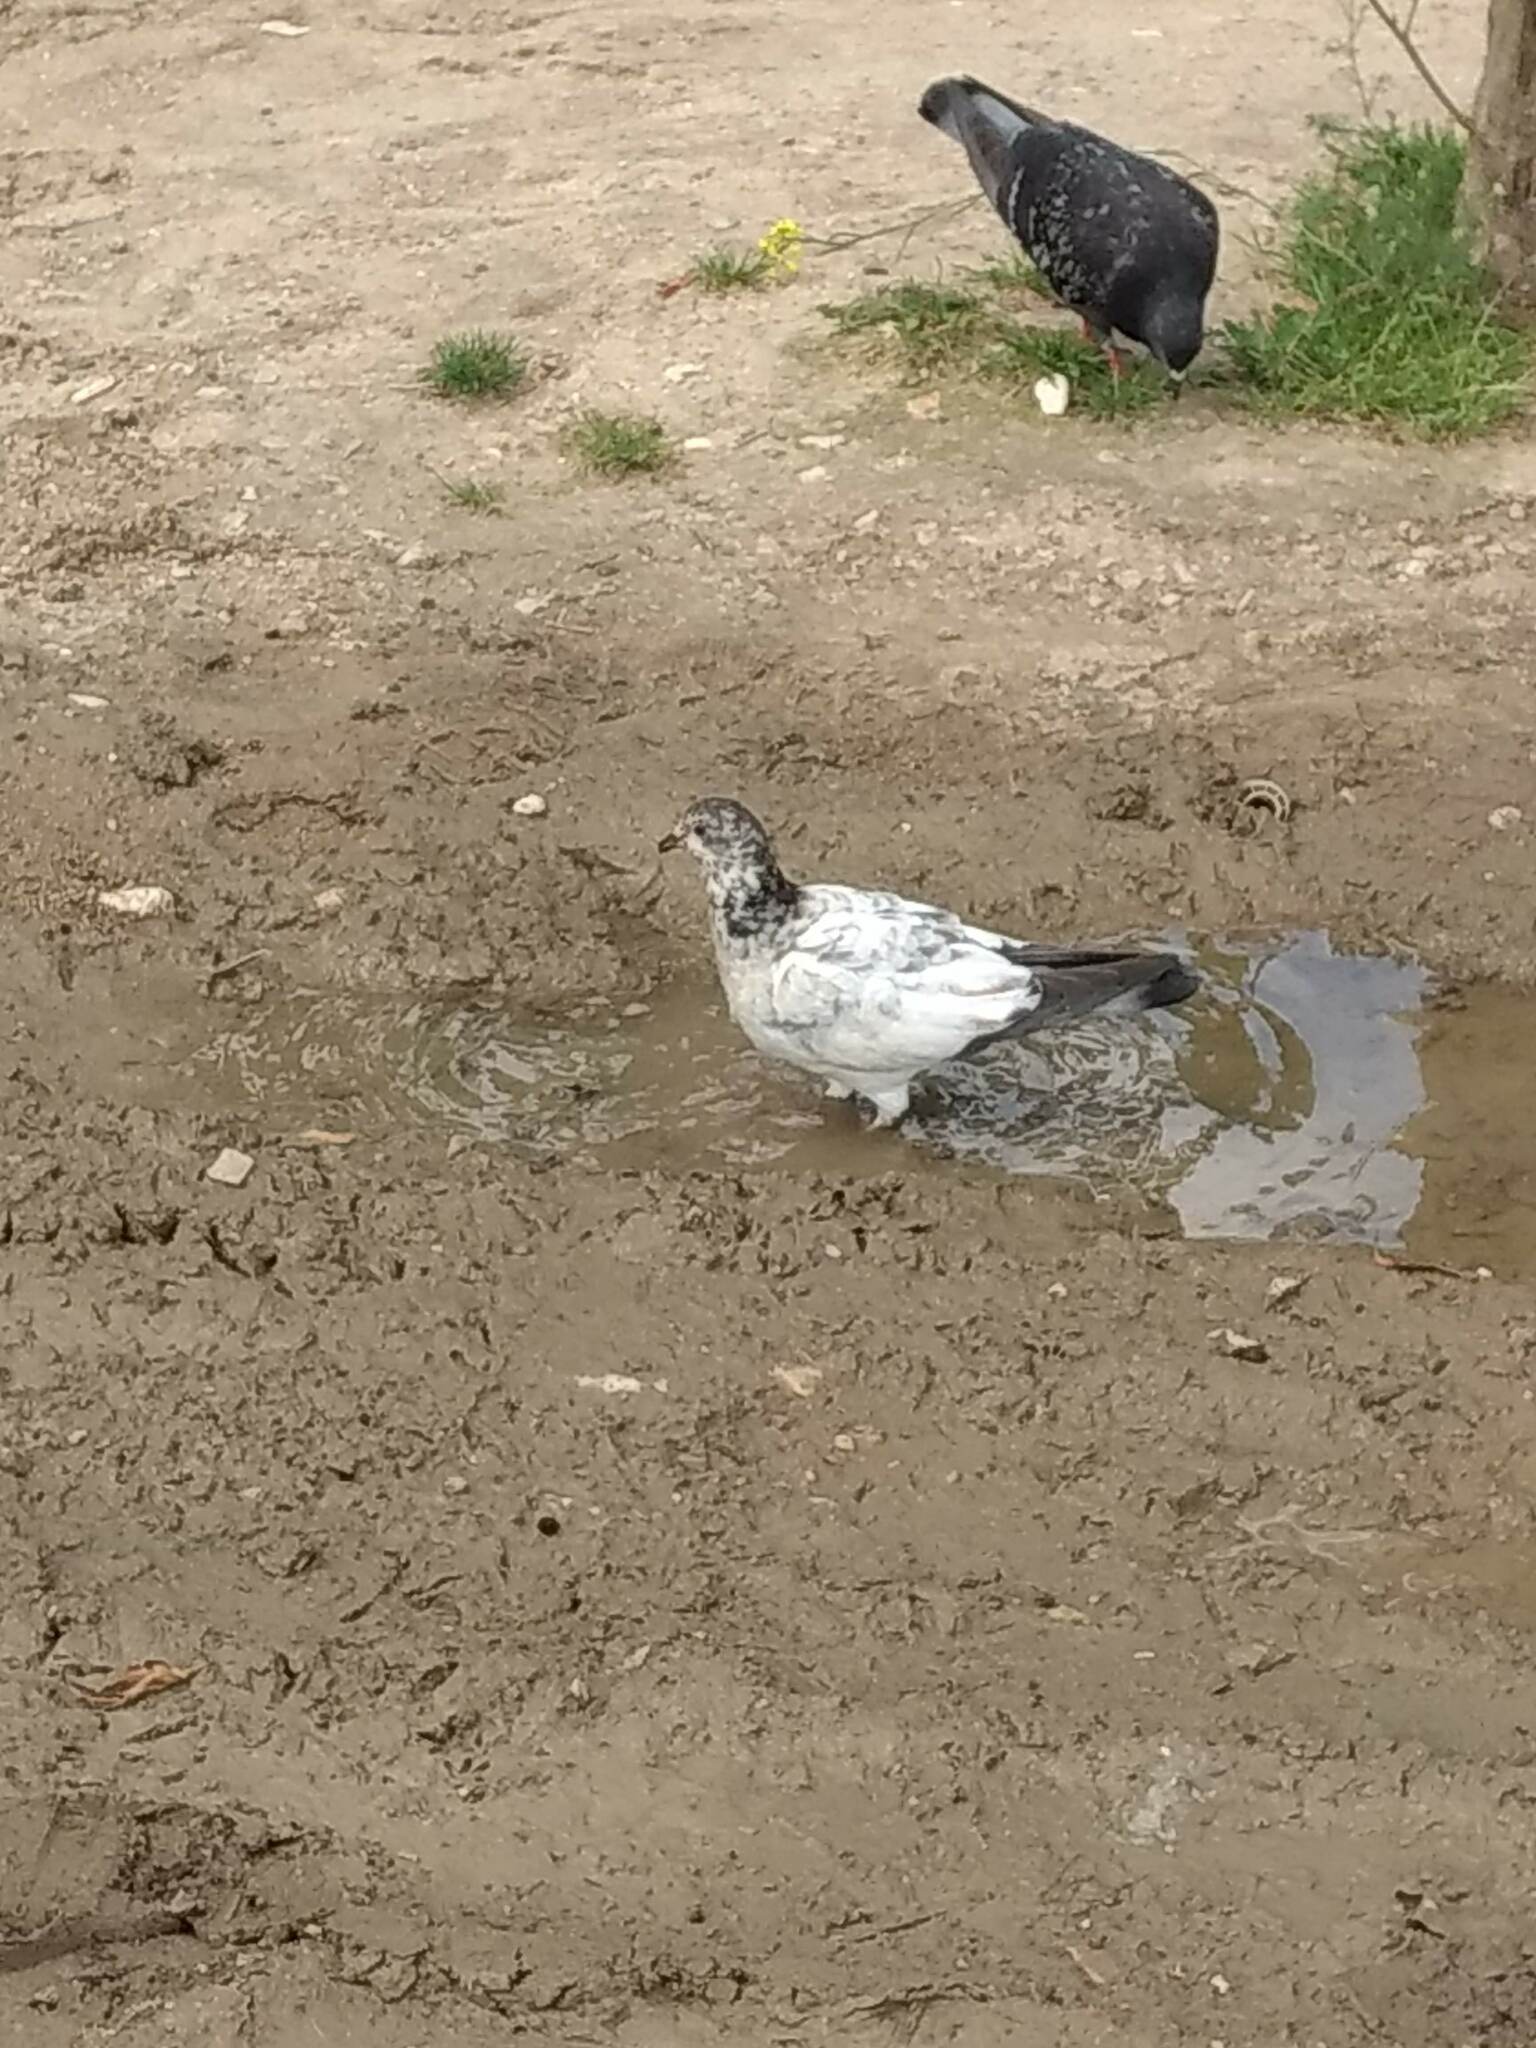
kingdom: Animalia
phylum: Chordata
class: Aves
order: Columbiformes
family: Columbidae
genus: Columba
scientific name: Columba livia
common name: Rock pigeon
